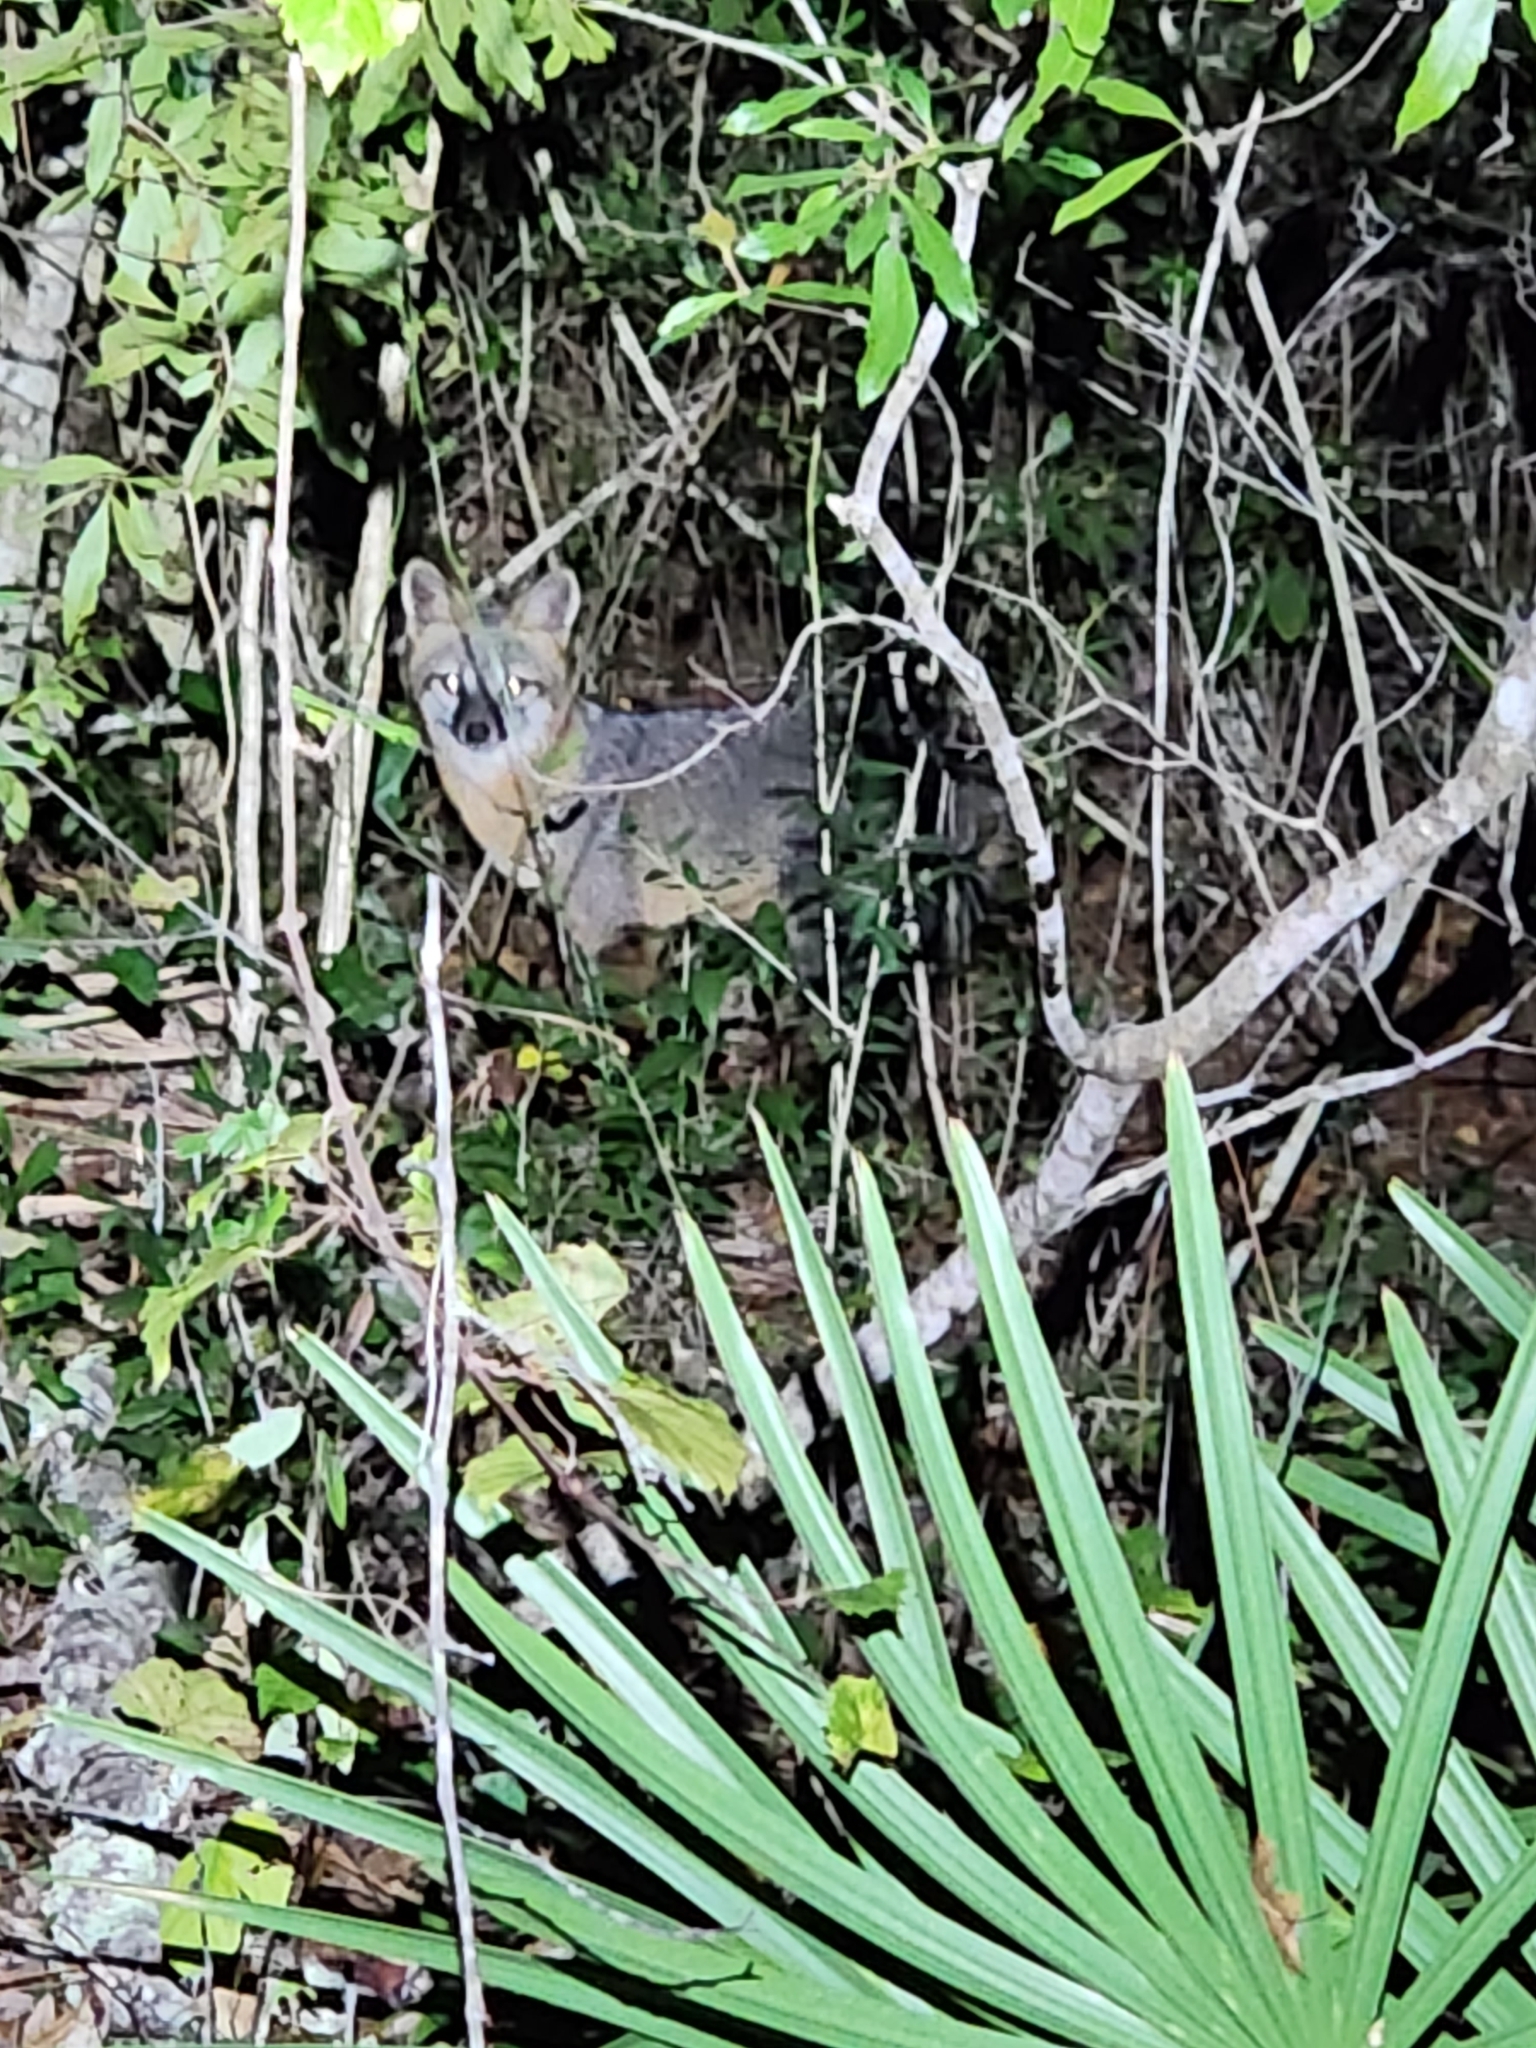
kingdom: Animalia
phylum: Chordata
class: Mammalia
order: Carnivora
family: Canidae
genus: Urocyon
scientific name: Urocyon cinereoargenteus
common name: Gray fox
